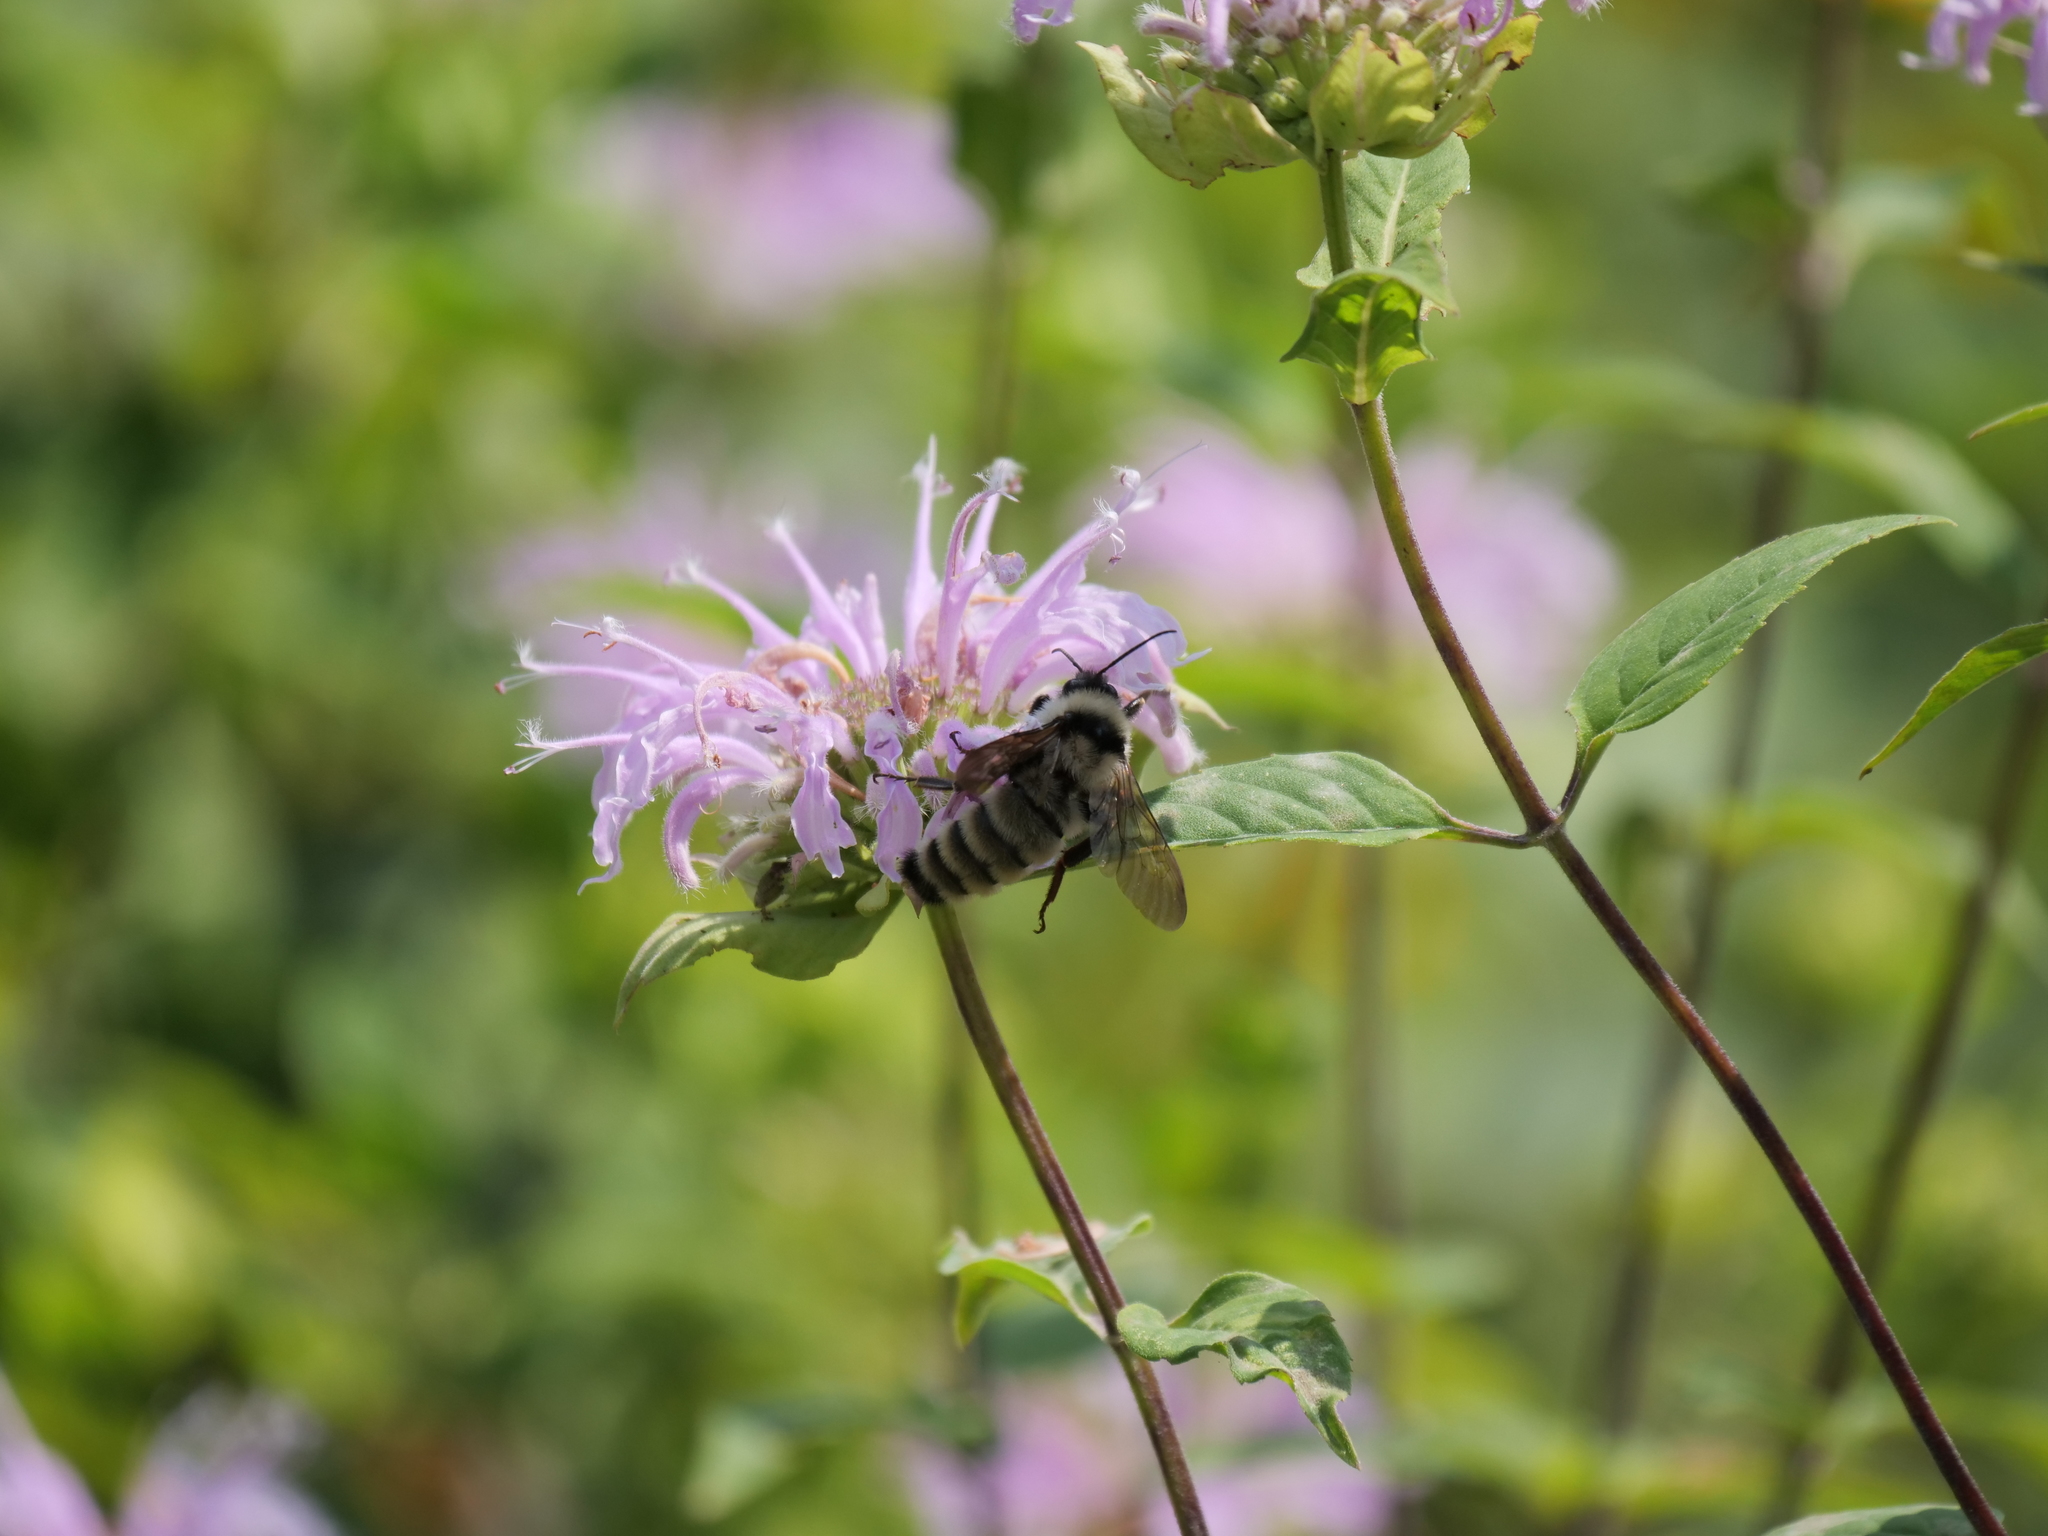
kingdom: Animalia
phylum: Arthropoda
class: Insecta
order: Hymenoptera
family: Apidae
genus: Bombus
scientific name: Bombus fervidus
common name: Yellow bumble bee
